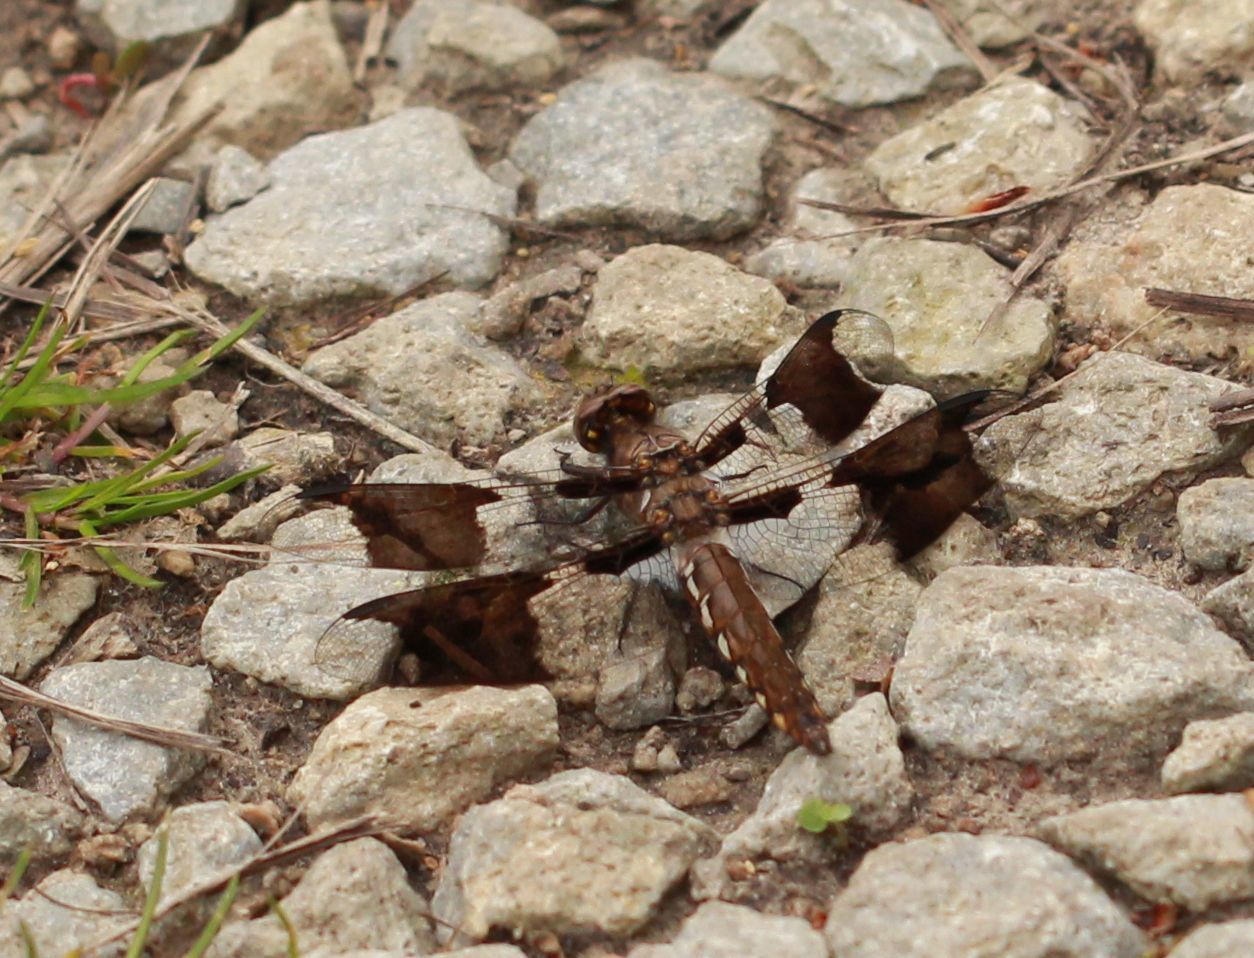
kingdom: Animalia
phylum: Arthropoda
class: Insecta
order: Odonata
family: Libellulidae
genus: Plathemis
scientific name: Plathemis lydia
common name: Common whitetail
